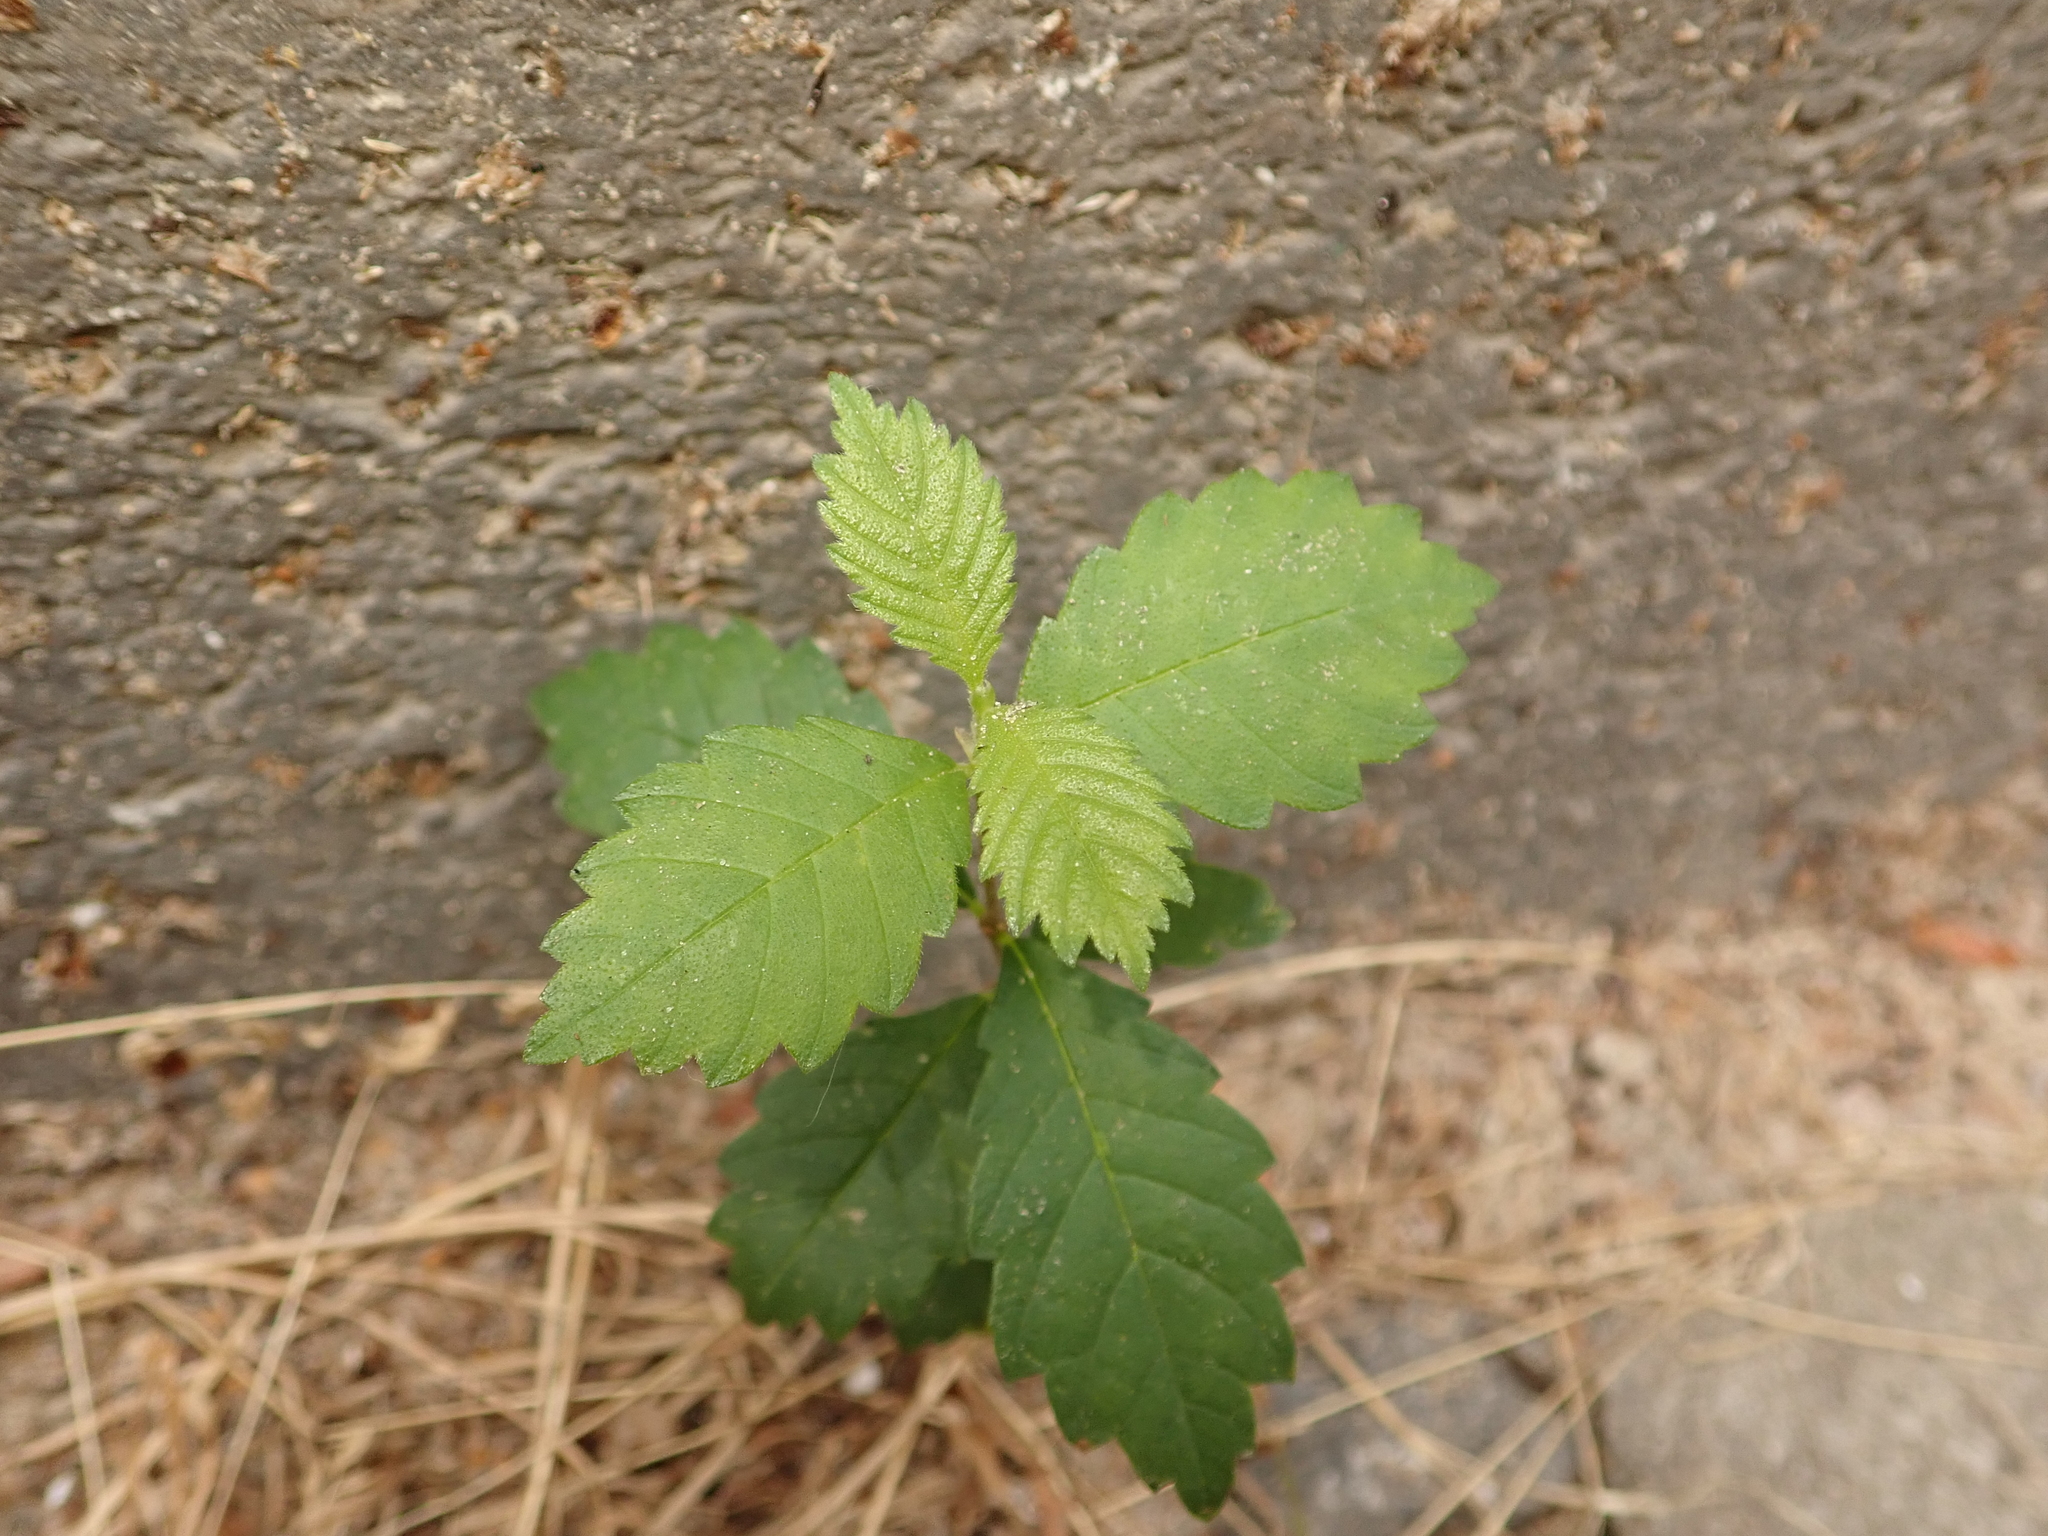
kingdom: Plantae
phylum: Tracheophyta
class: Magnoliopsida
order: Rosales
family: Ulmaceae
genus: Ulmus
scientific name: Ulmus minor
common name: Small-leaved elm
